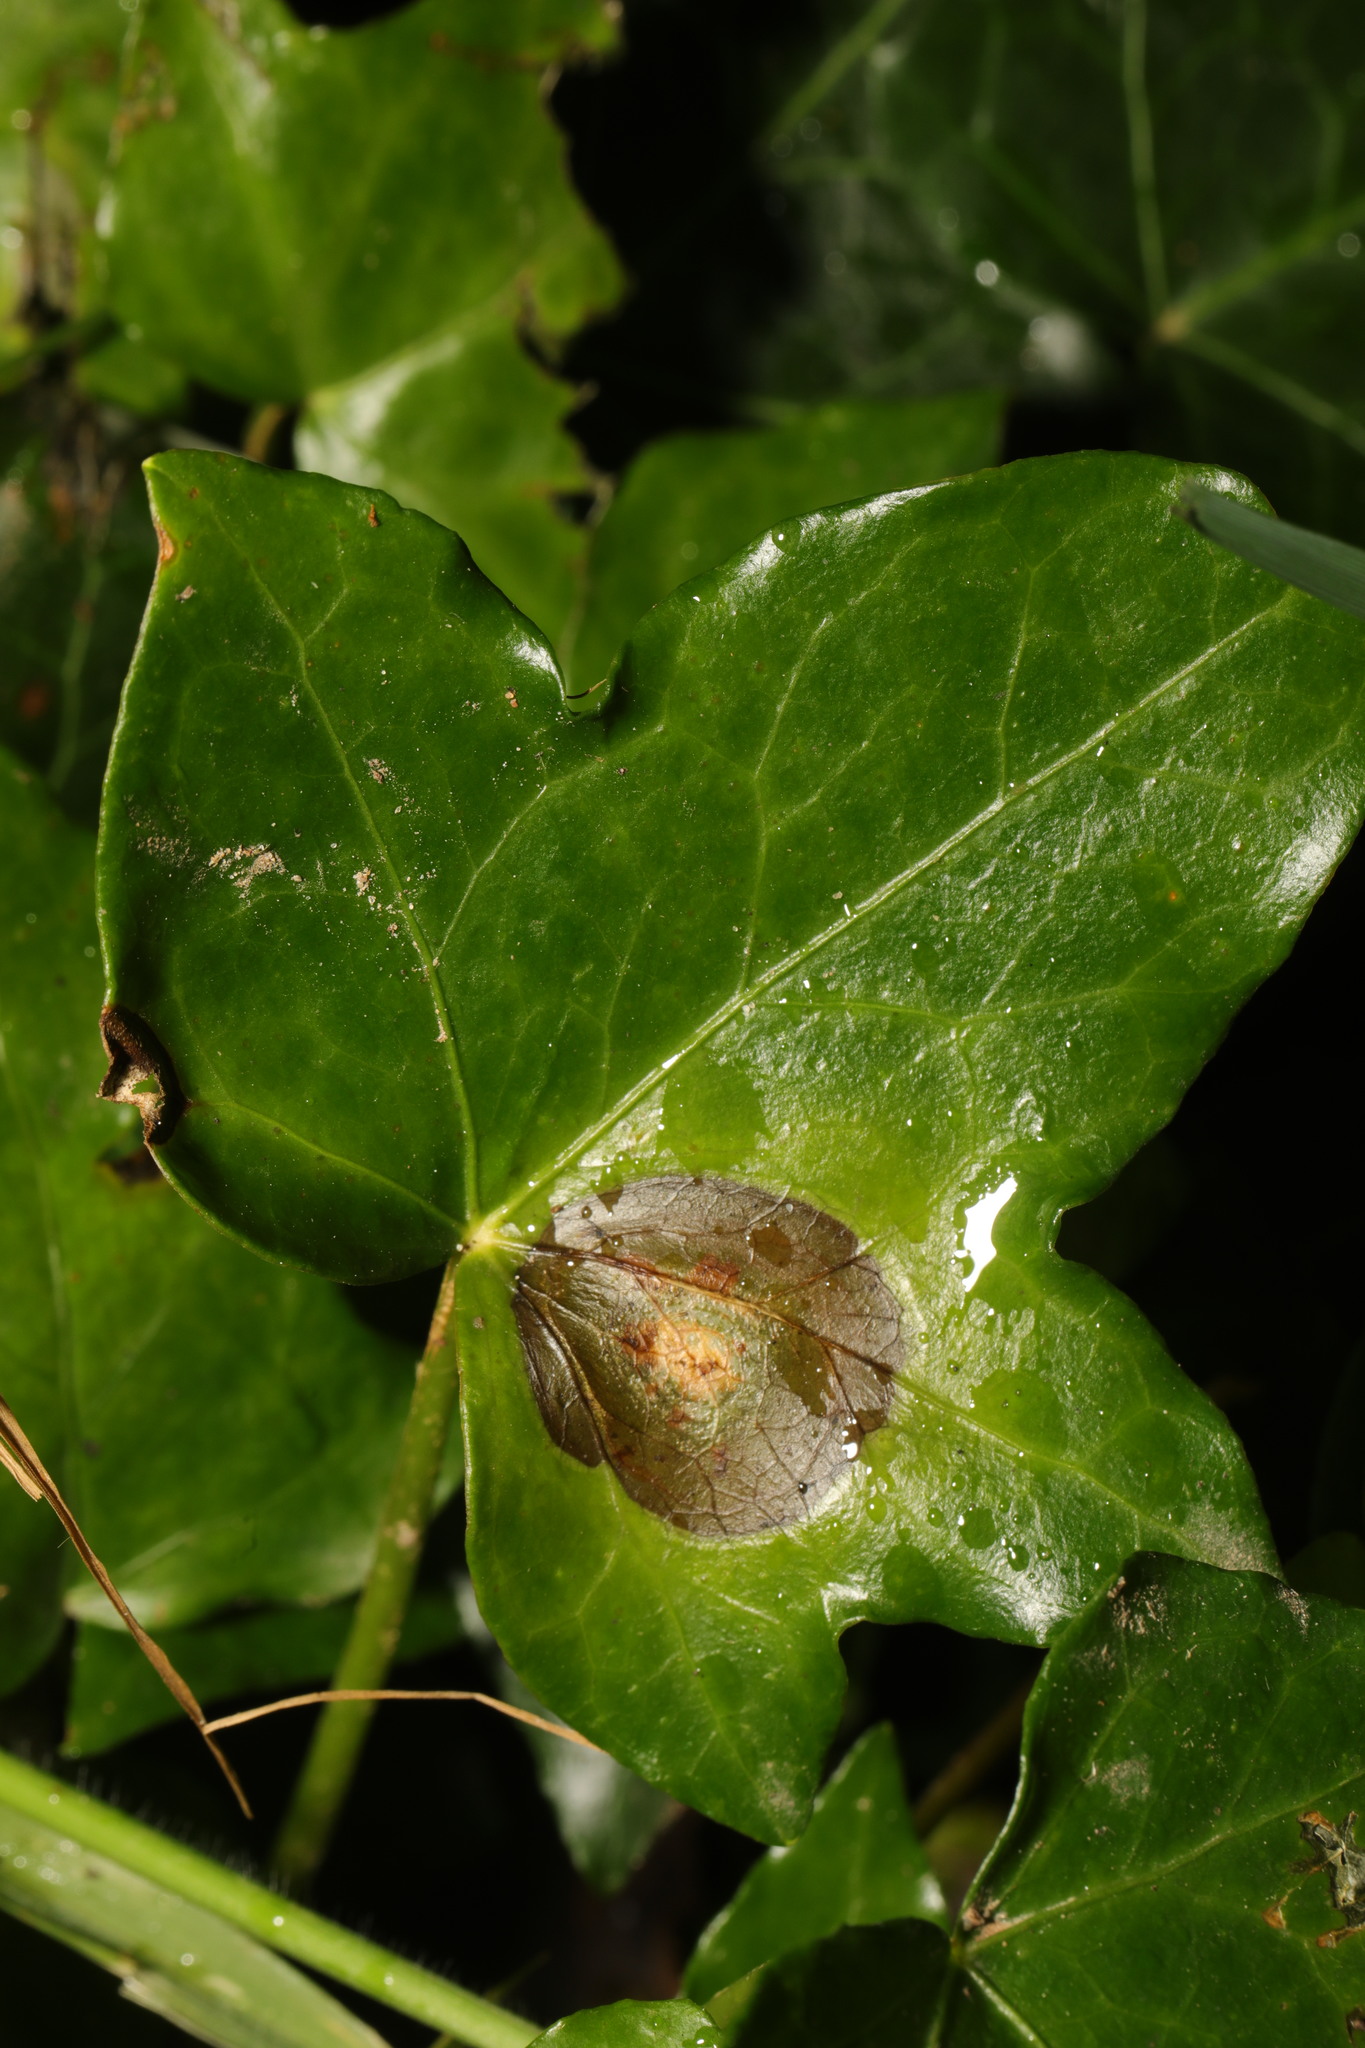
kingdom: Fungi
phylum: Ascomycota
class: Dothideomycetes
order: Pleosporales
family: Didymellaceae
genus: Boeremia
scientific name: Boeremia hedericola
